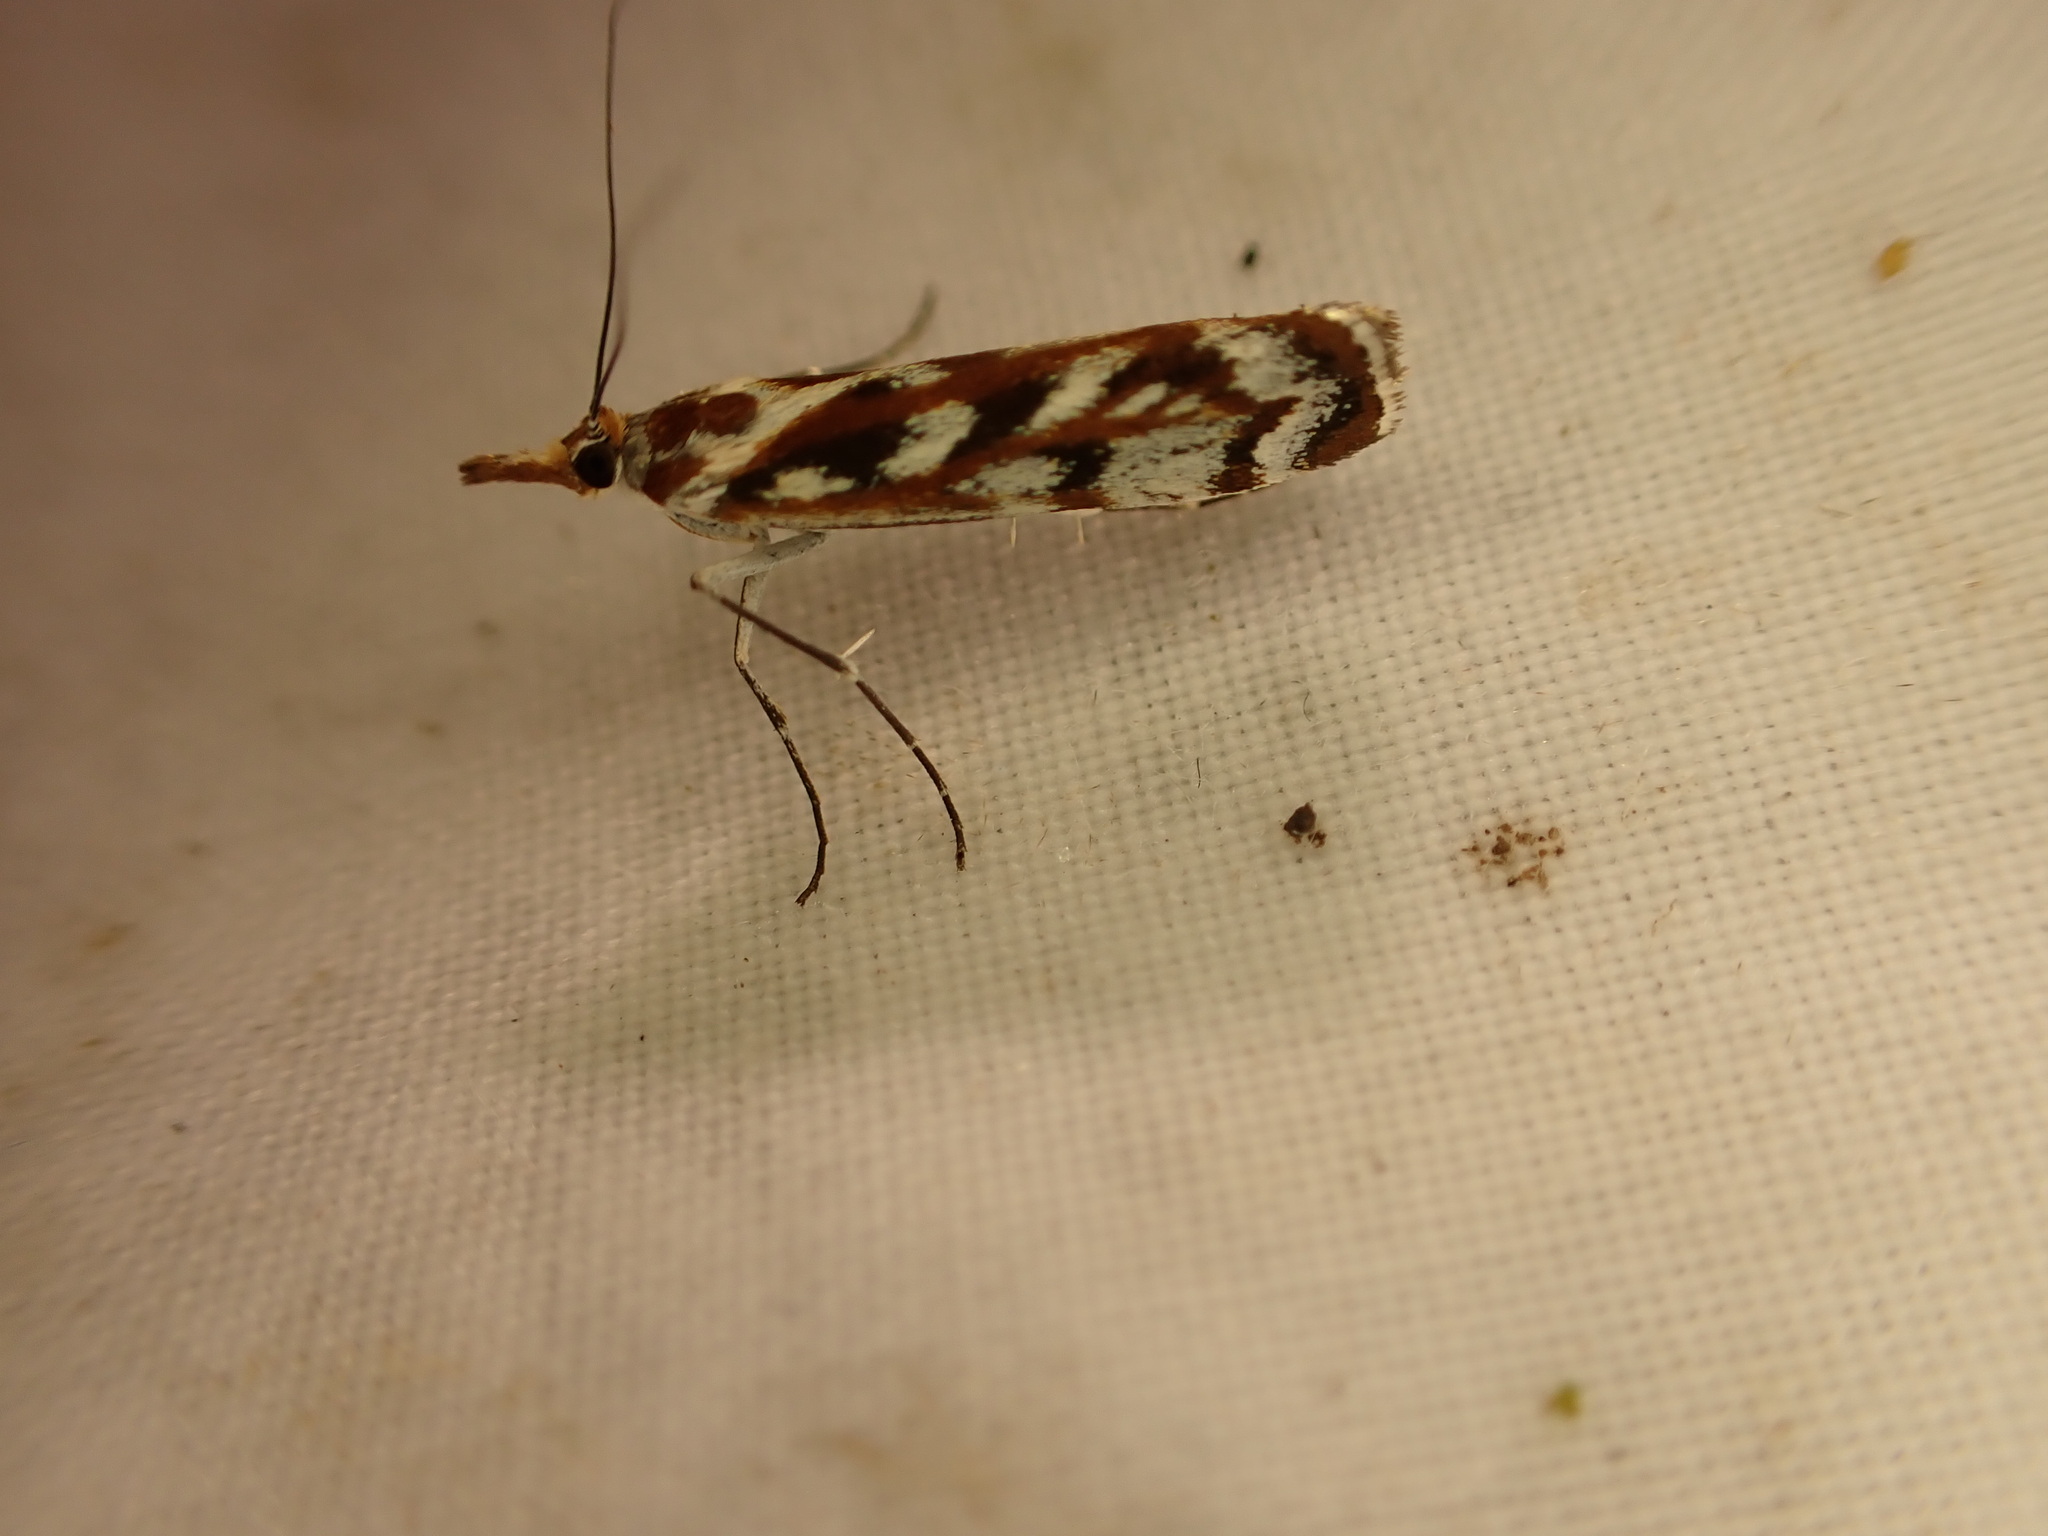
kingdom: Animalia
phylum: Arthropoda
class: Insecta
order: Lepidoptera
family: Crambidae
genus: Orocrambus
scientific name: Orocrambus xanthogrammus
